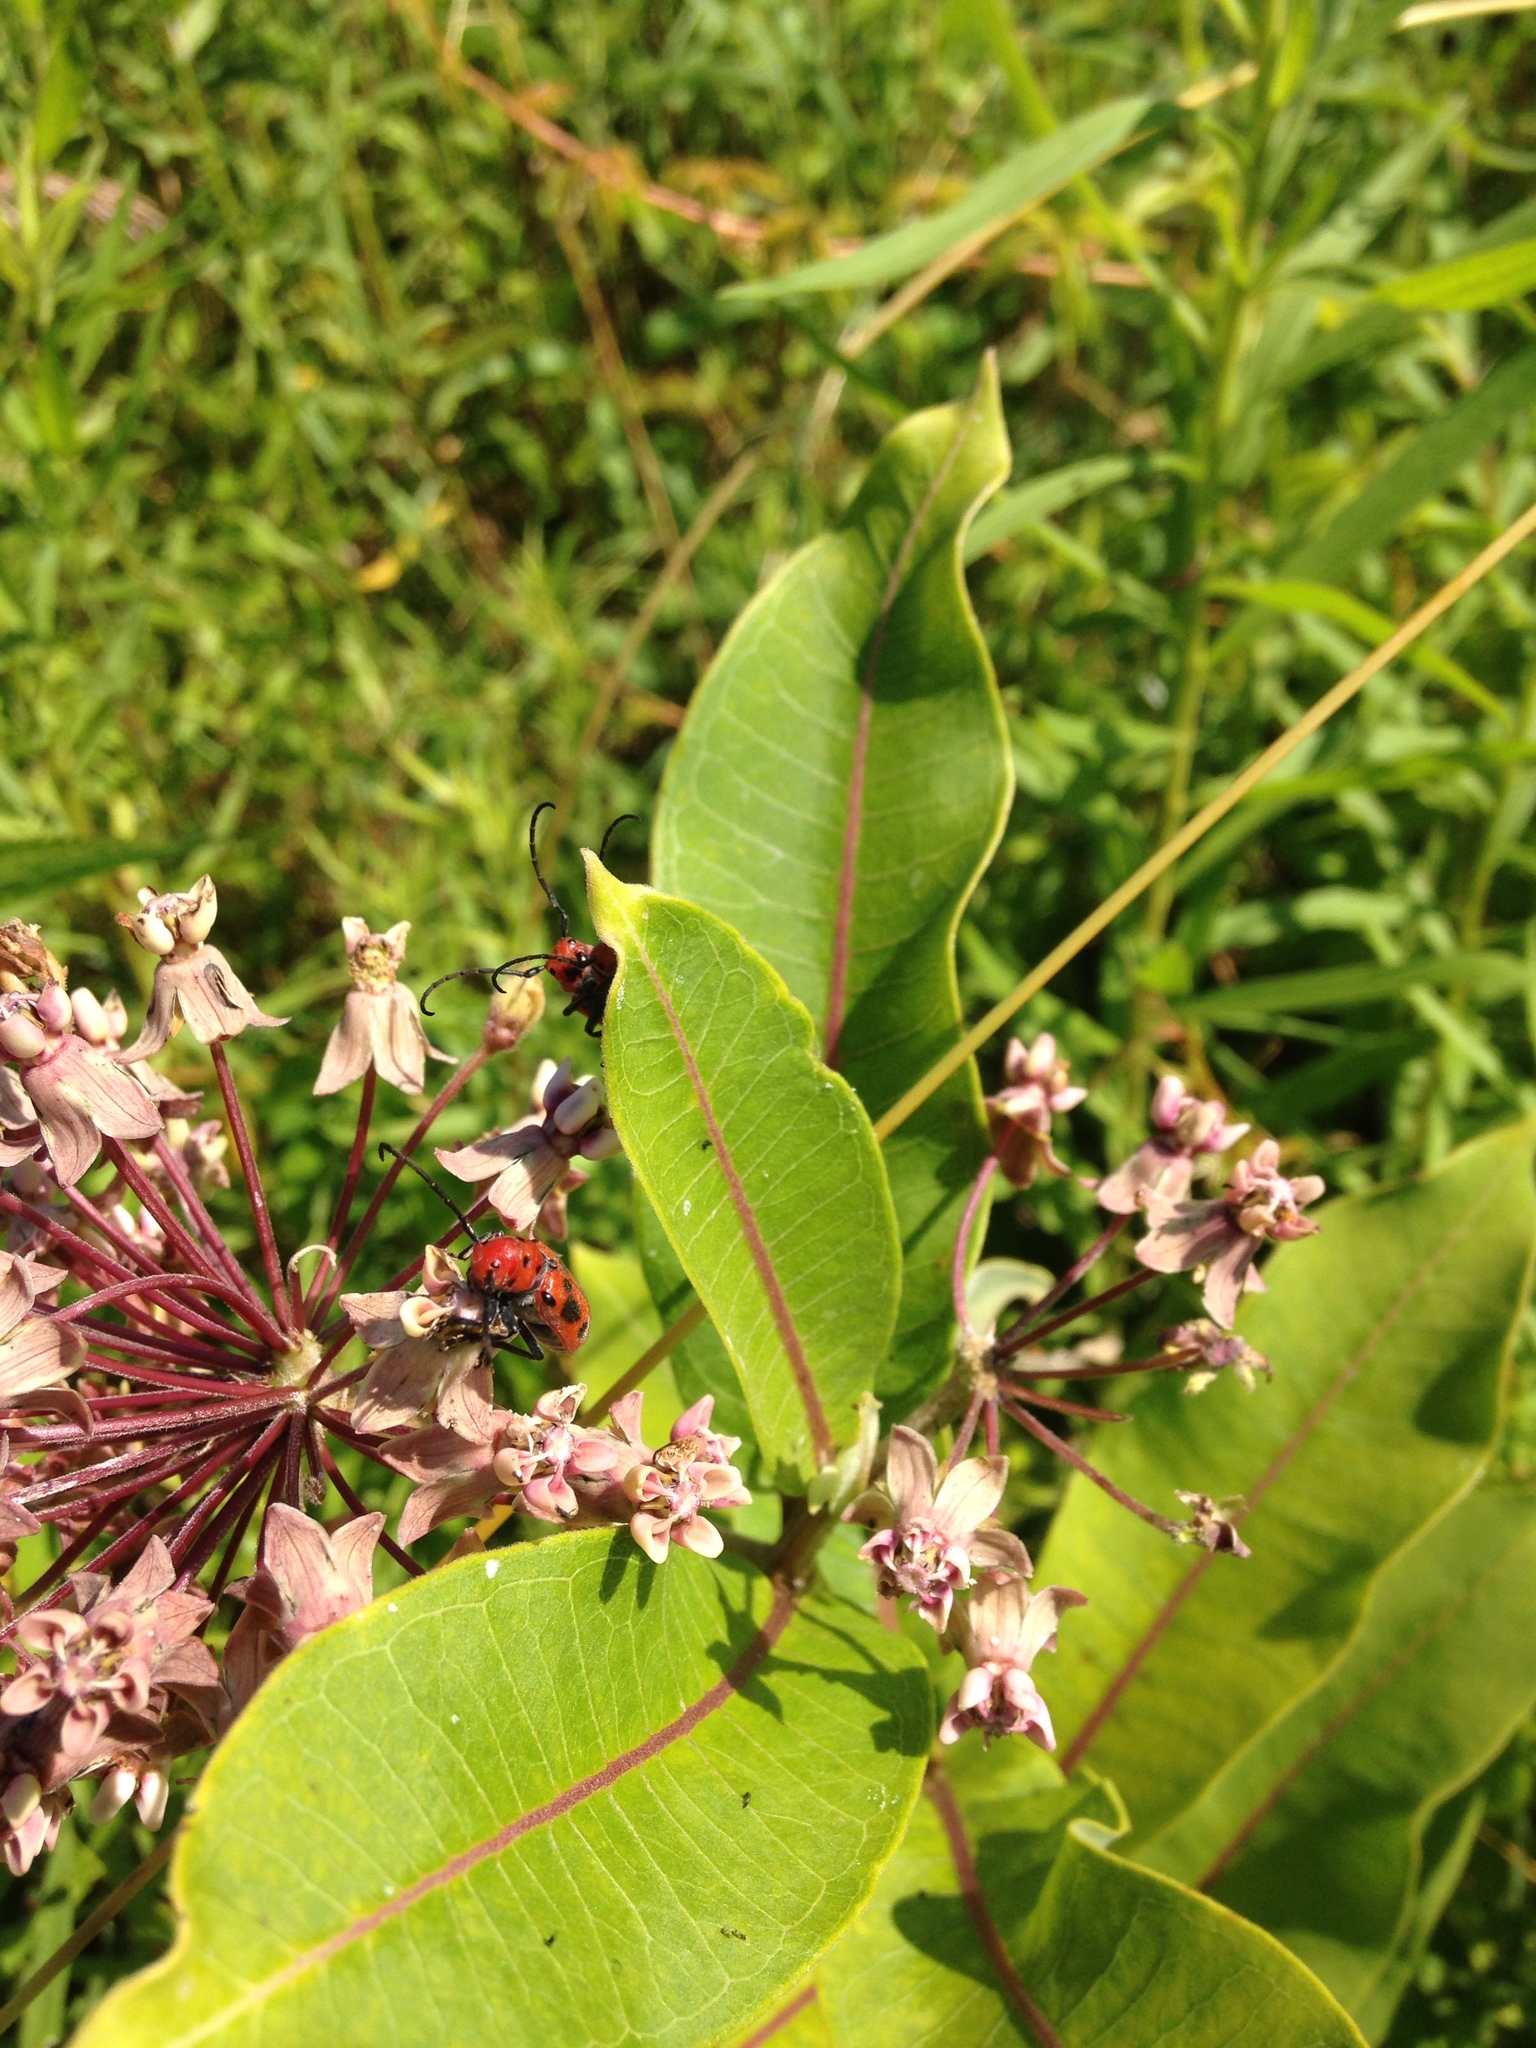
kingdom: Animalia
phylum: Arthropoda
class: Insecta
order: Coleoptera
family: Cerambycidae
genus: Tetraopes
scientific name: Tetraopes tetrophthalmus
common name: Red milkweed beetle
